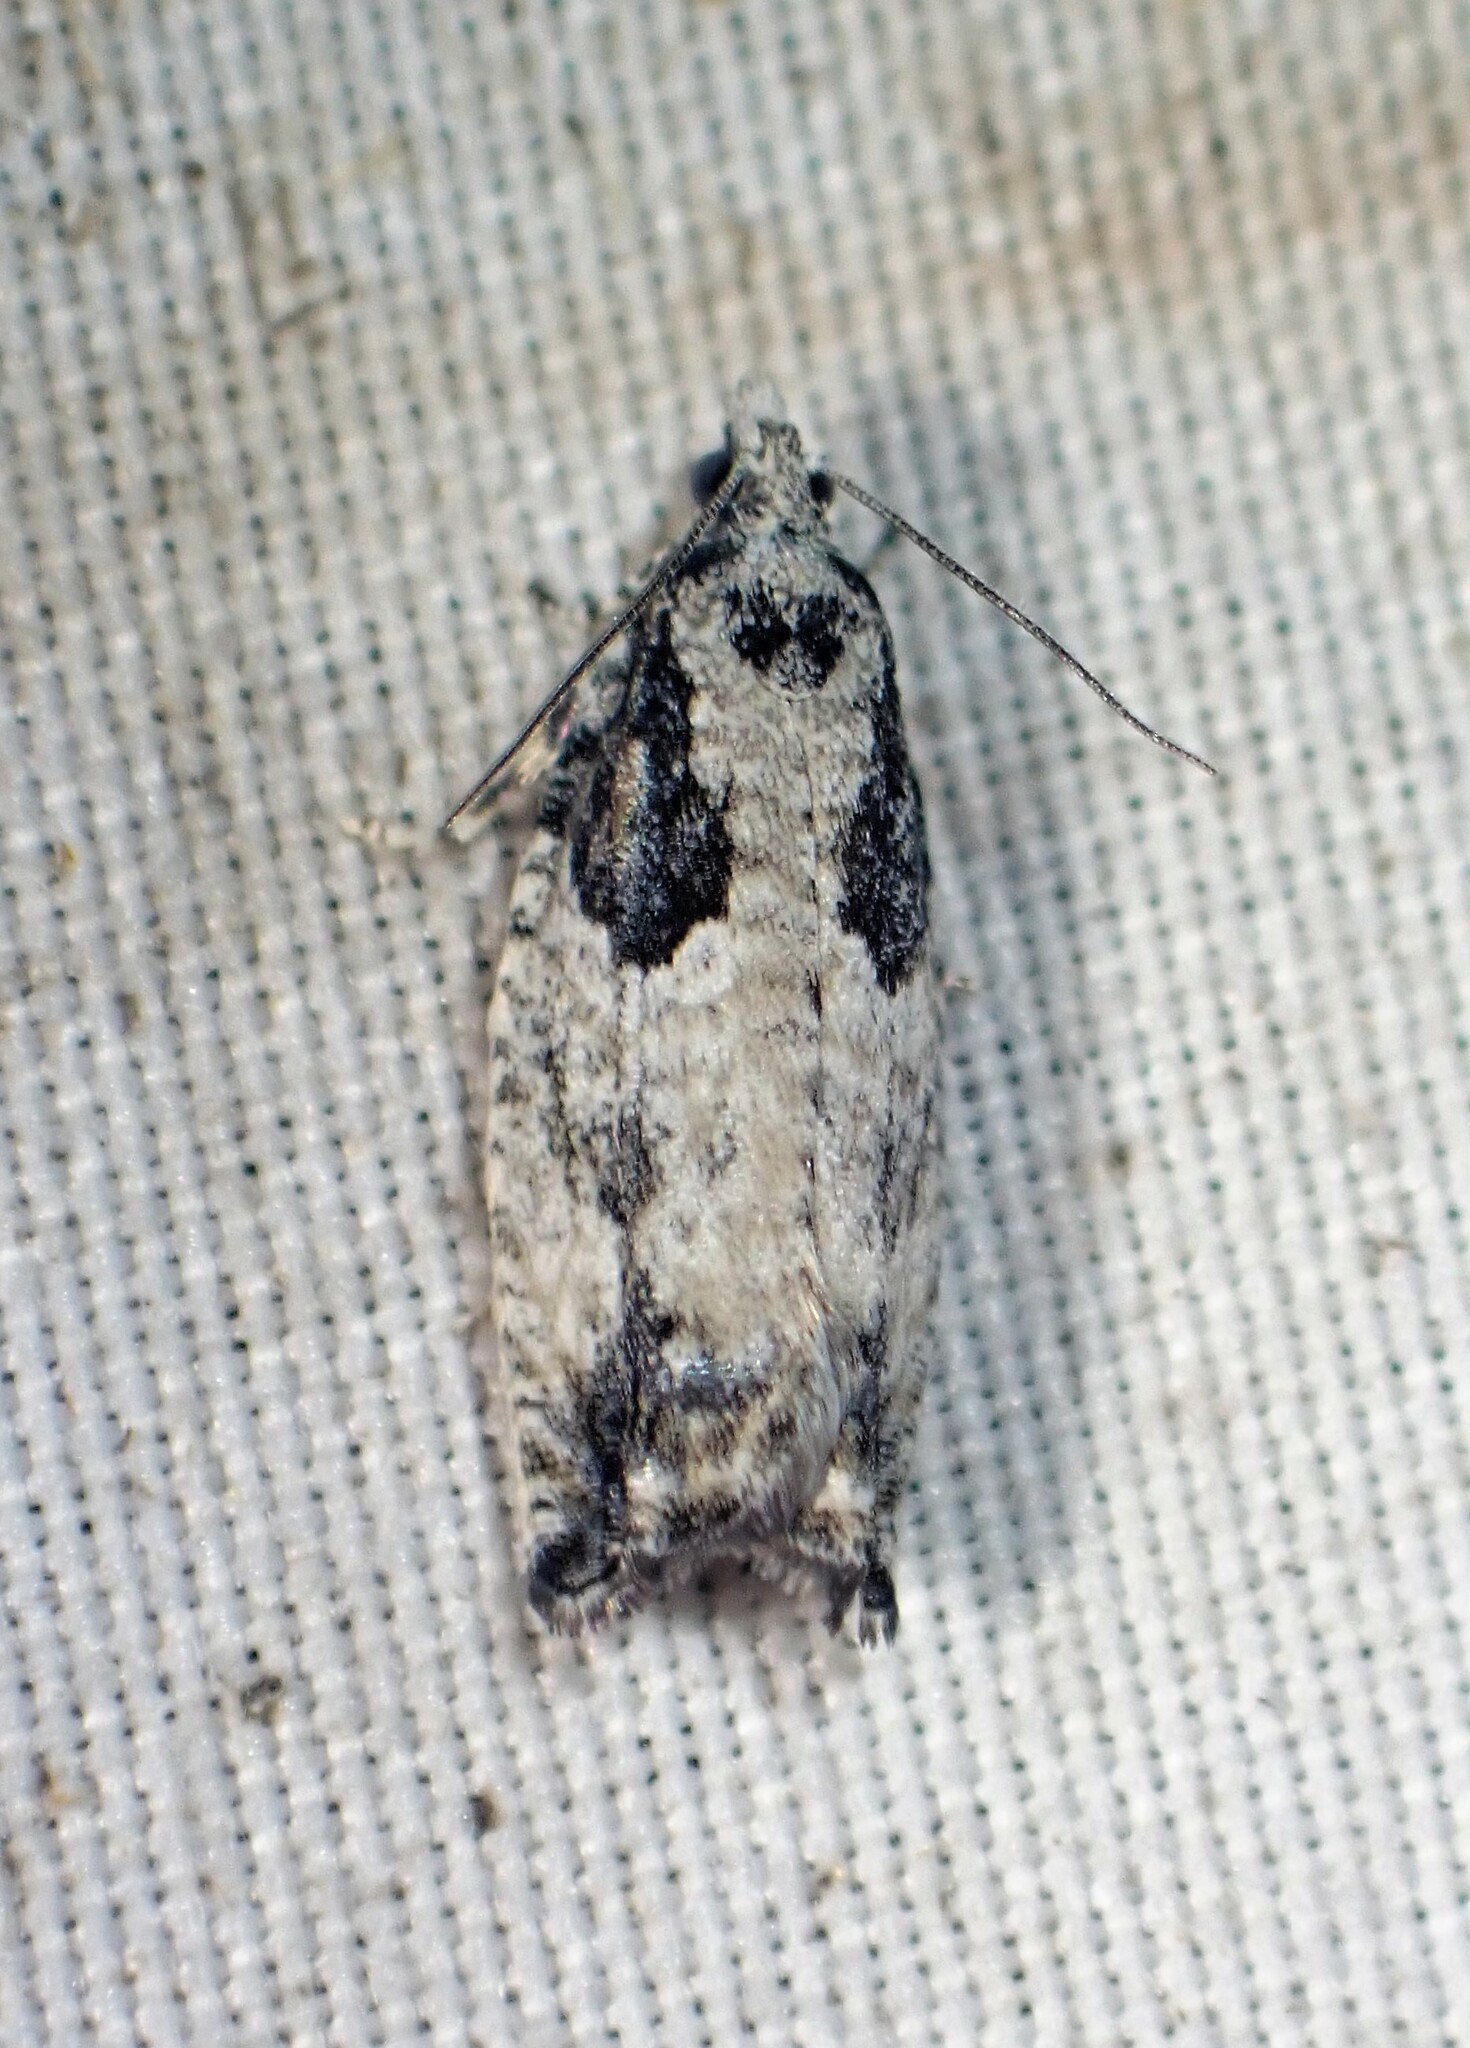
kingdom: Animalia
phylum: Arthropoda
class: Insecta
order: Lepidoptera
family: Tortricidae
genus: Epinotia
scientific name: Epinotia cinereana
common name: Grey aspen bell
